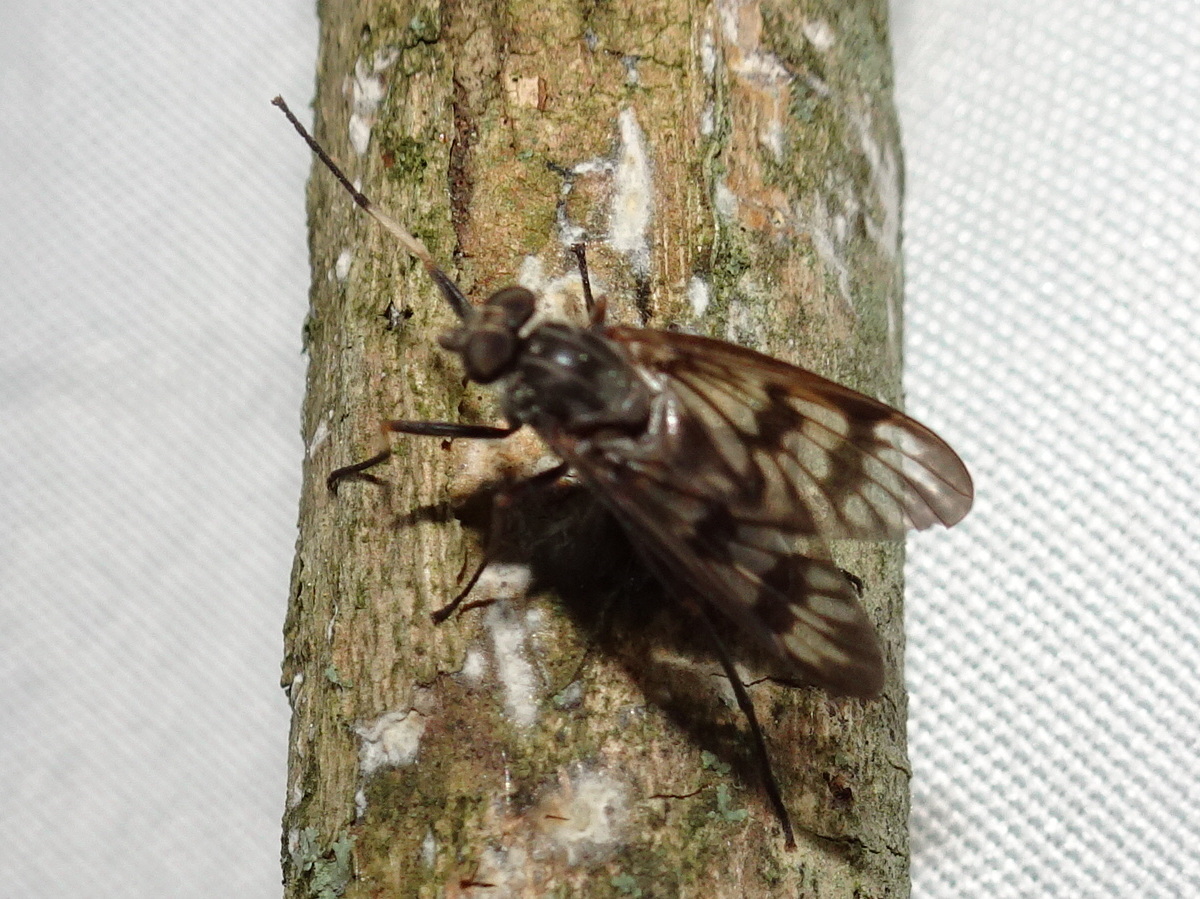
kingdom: Animalia
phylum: Arthropoda
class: Insecta
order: Diptera
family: Rhagionidae
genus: Rhagio
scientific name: Rhagio mystaceus
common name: Common snipe fly
